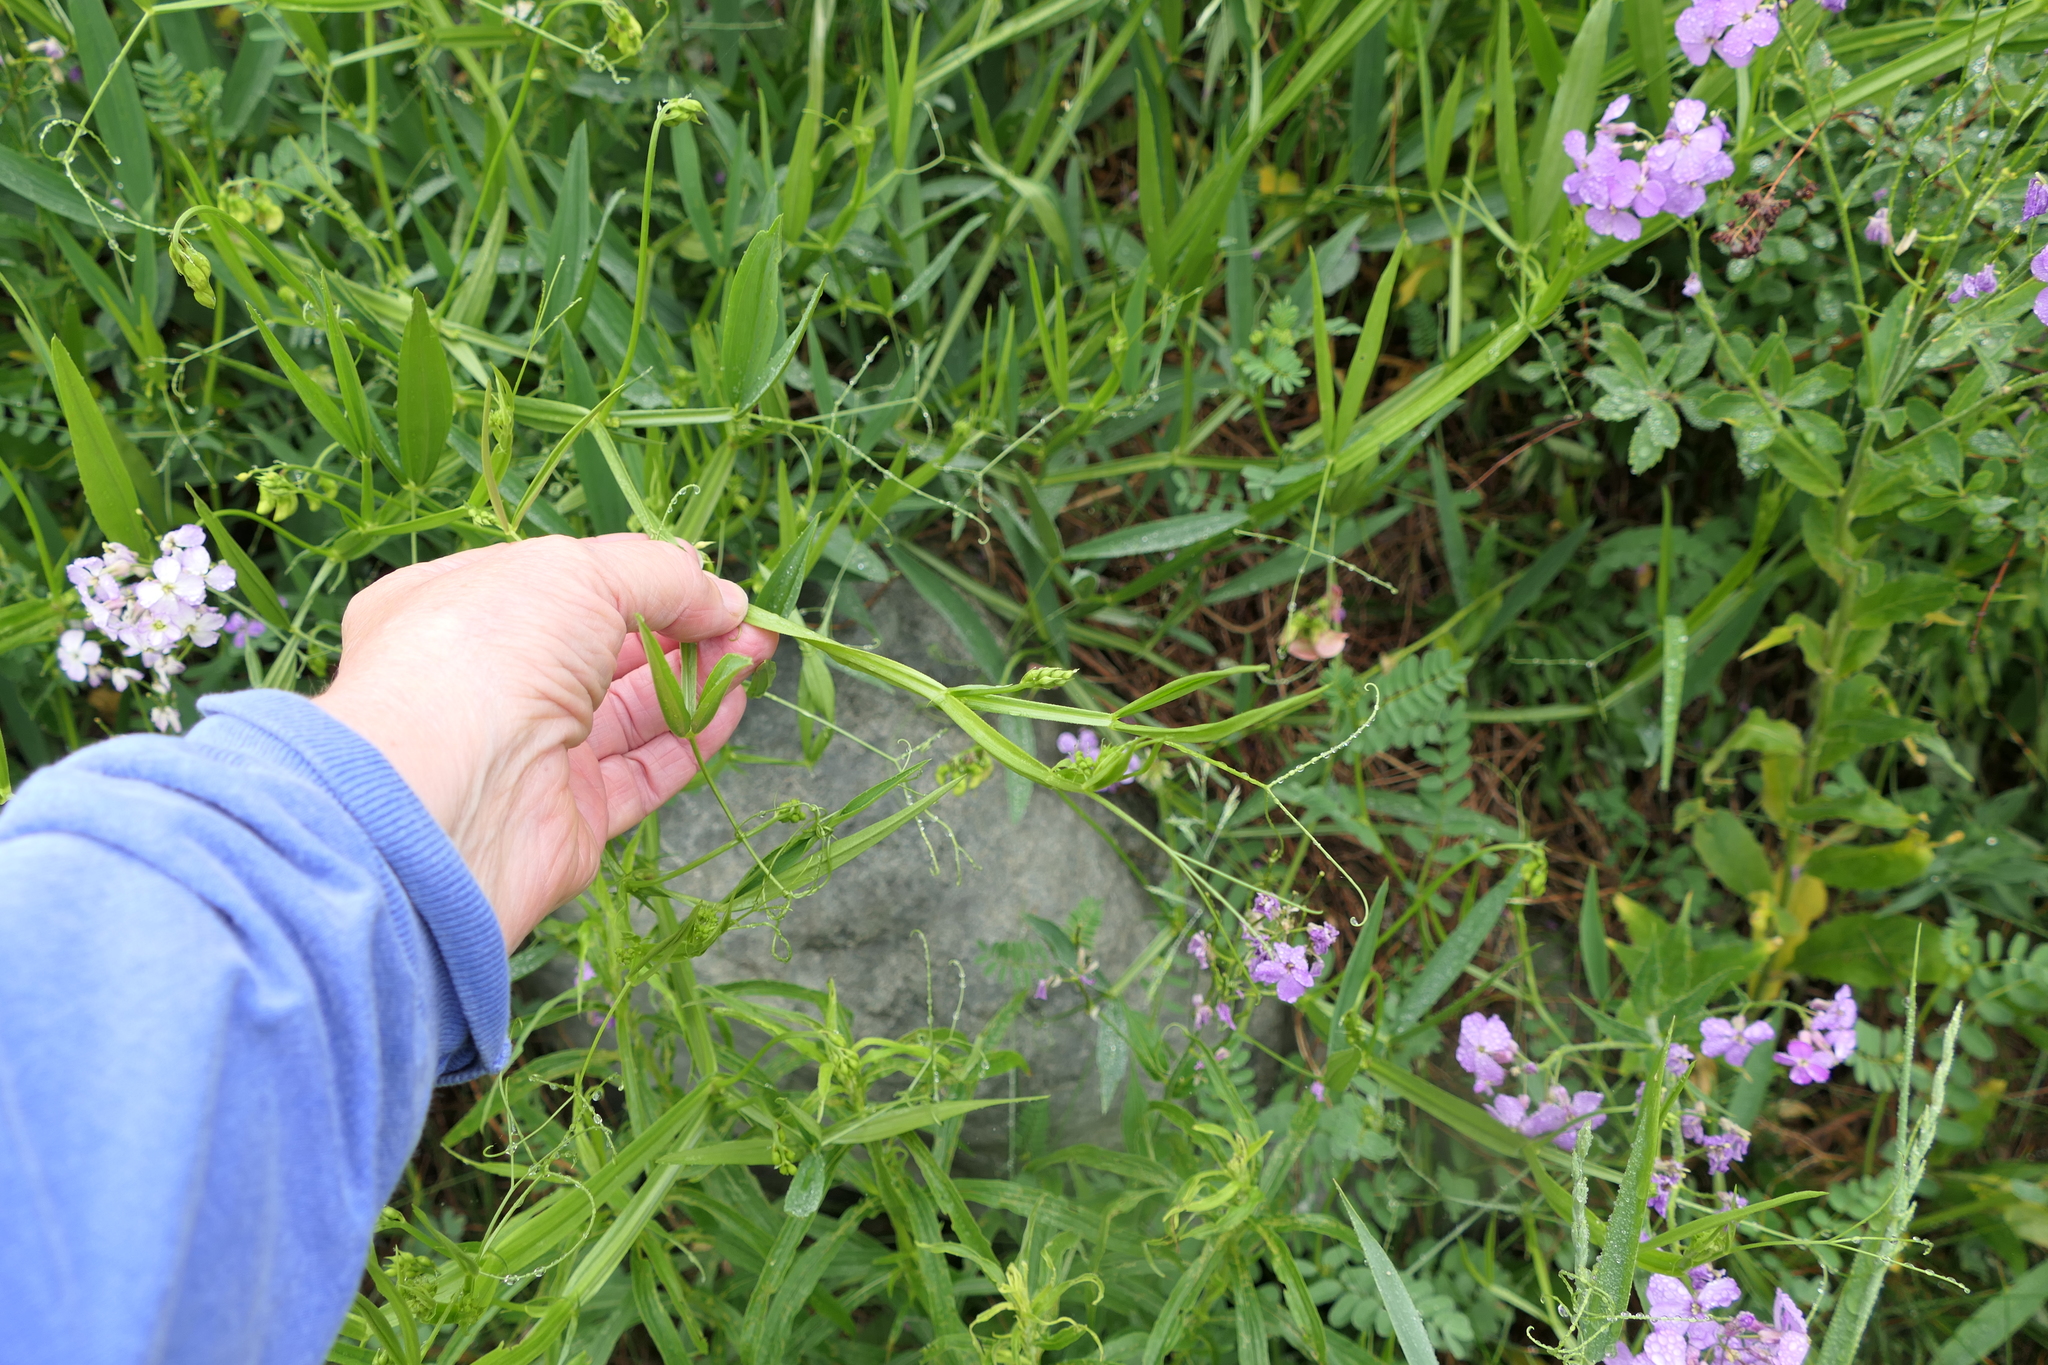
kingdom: Plantae
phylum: Tracheophyta
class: Magnoliopsida
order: Fabales
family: Fabaceae
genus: Lathyrus
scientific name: Lathyrus sylvestris
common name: Flat pea
